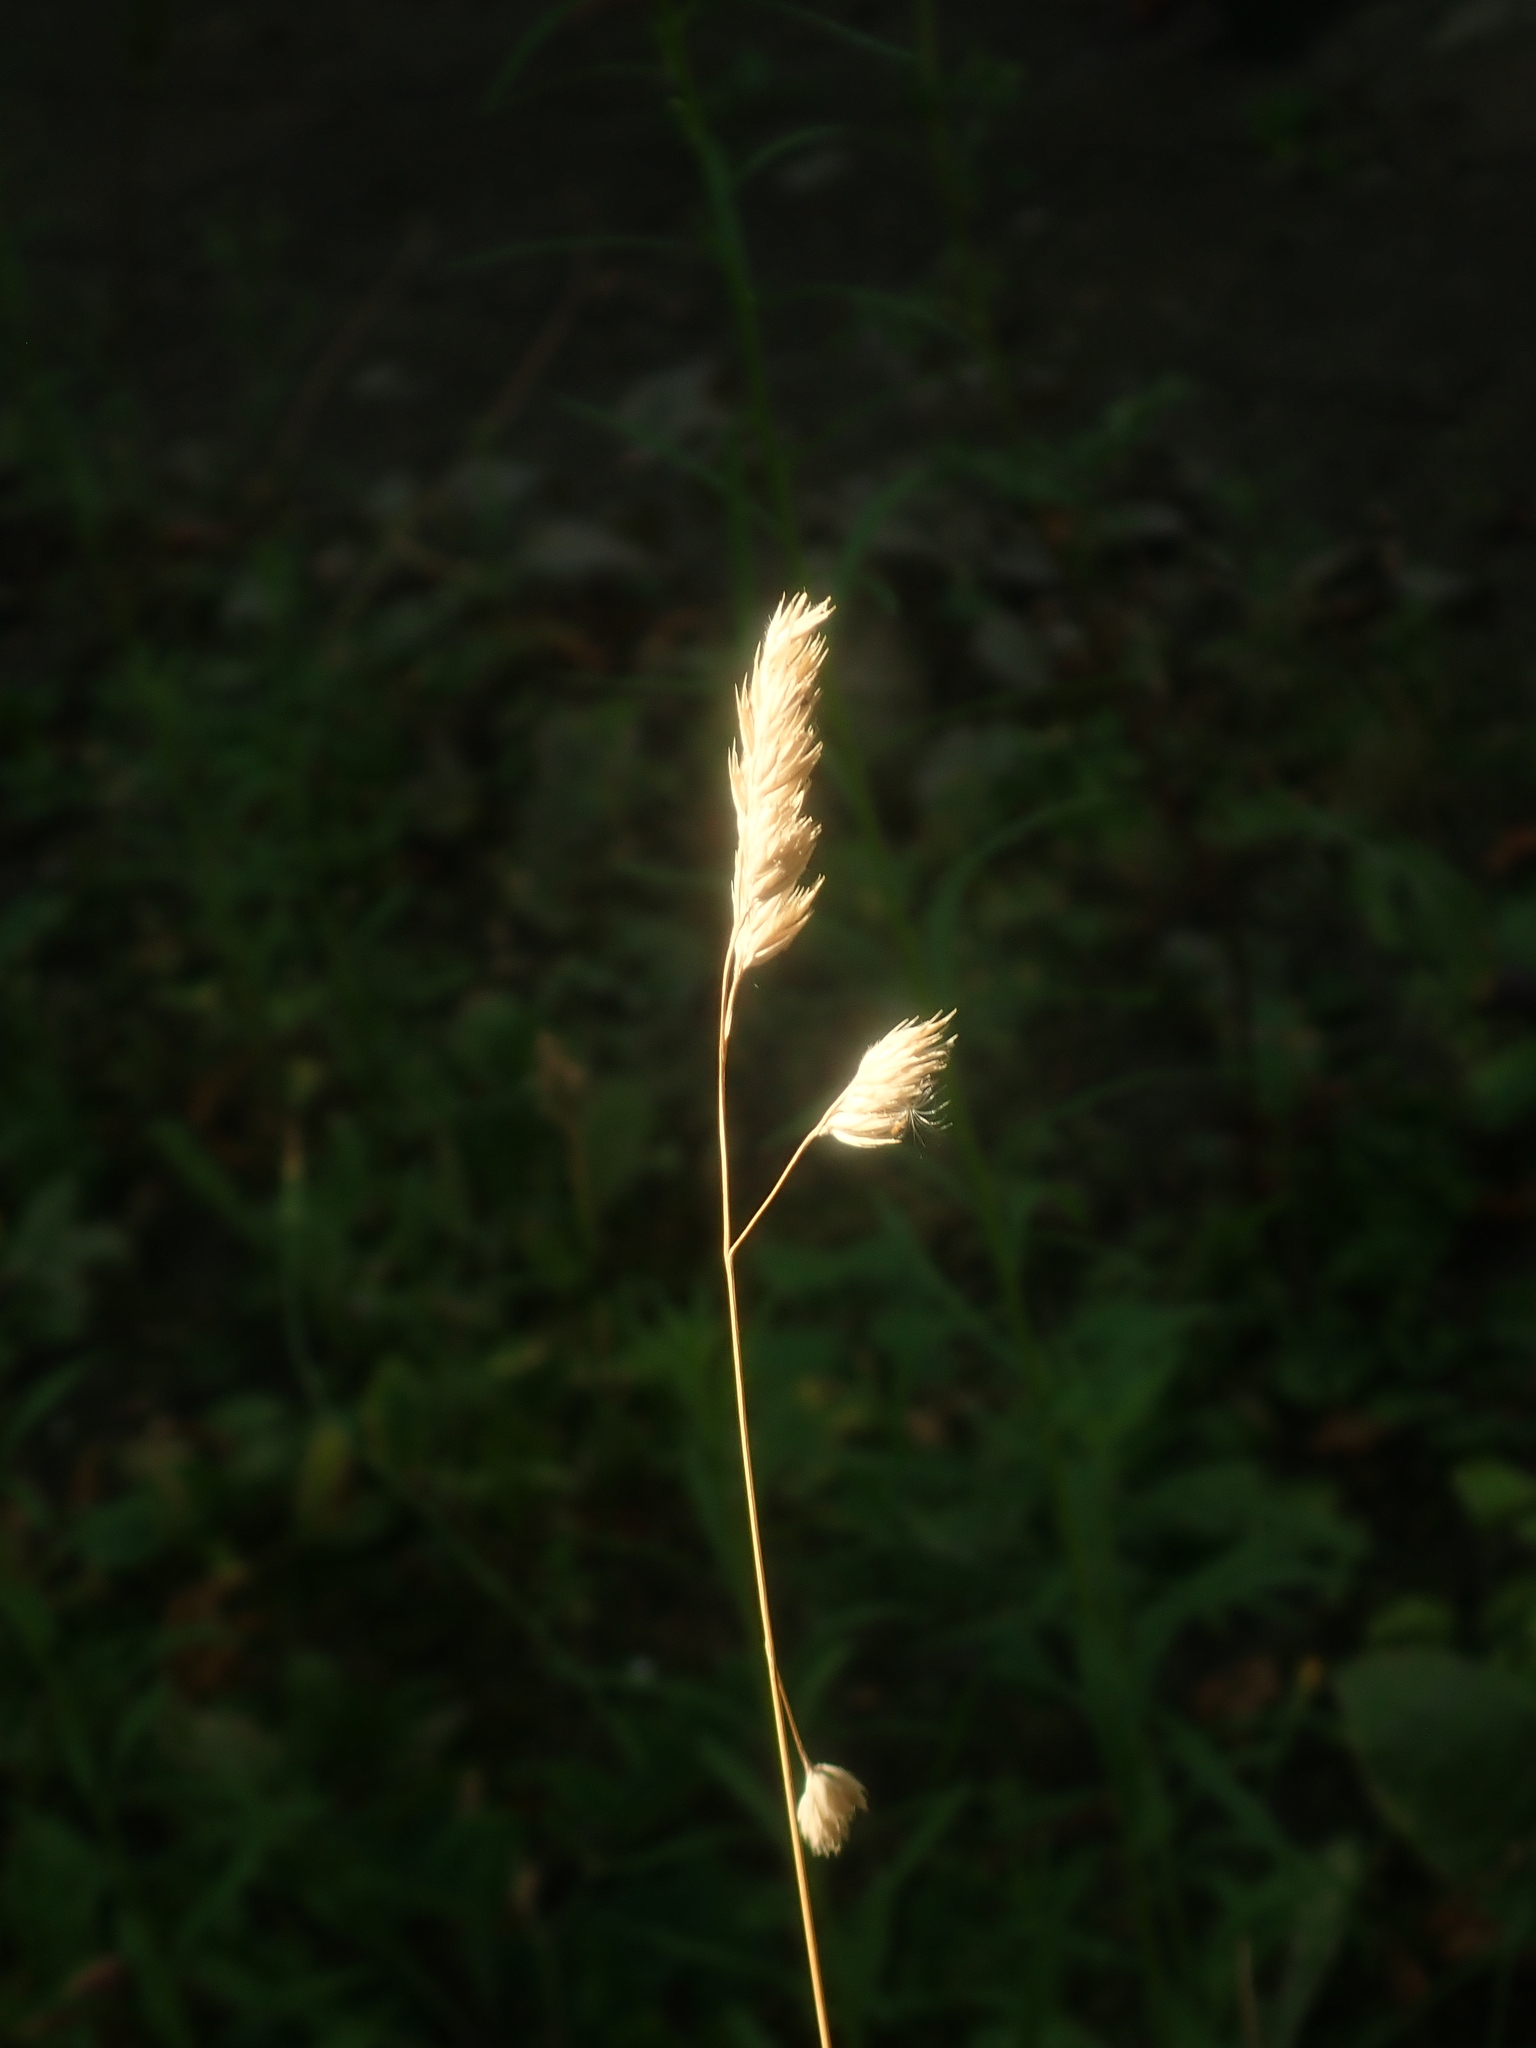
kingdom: Plantae
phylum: Tracheophyta
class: Liliopsida
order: Poales
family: Poaceae
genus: Dactylis
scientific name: Dactylis glomerata
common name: Orchardgrass
